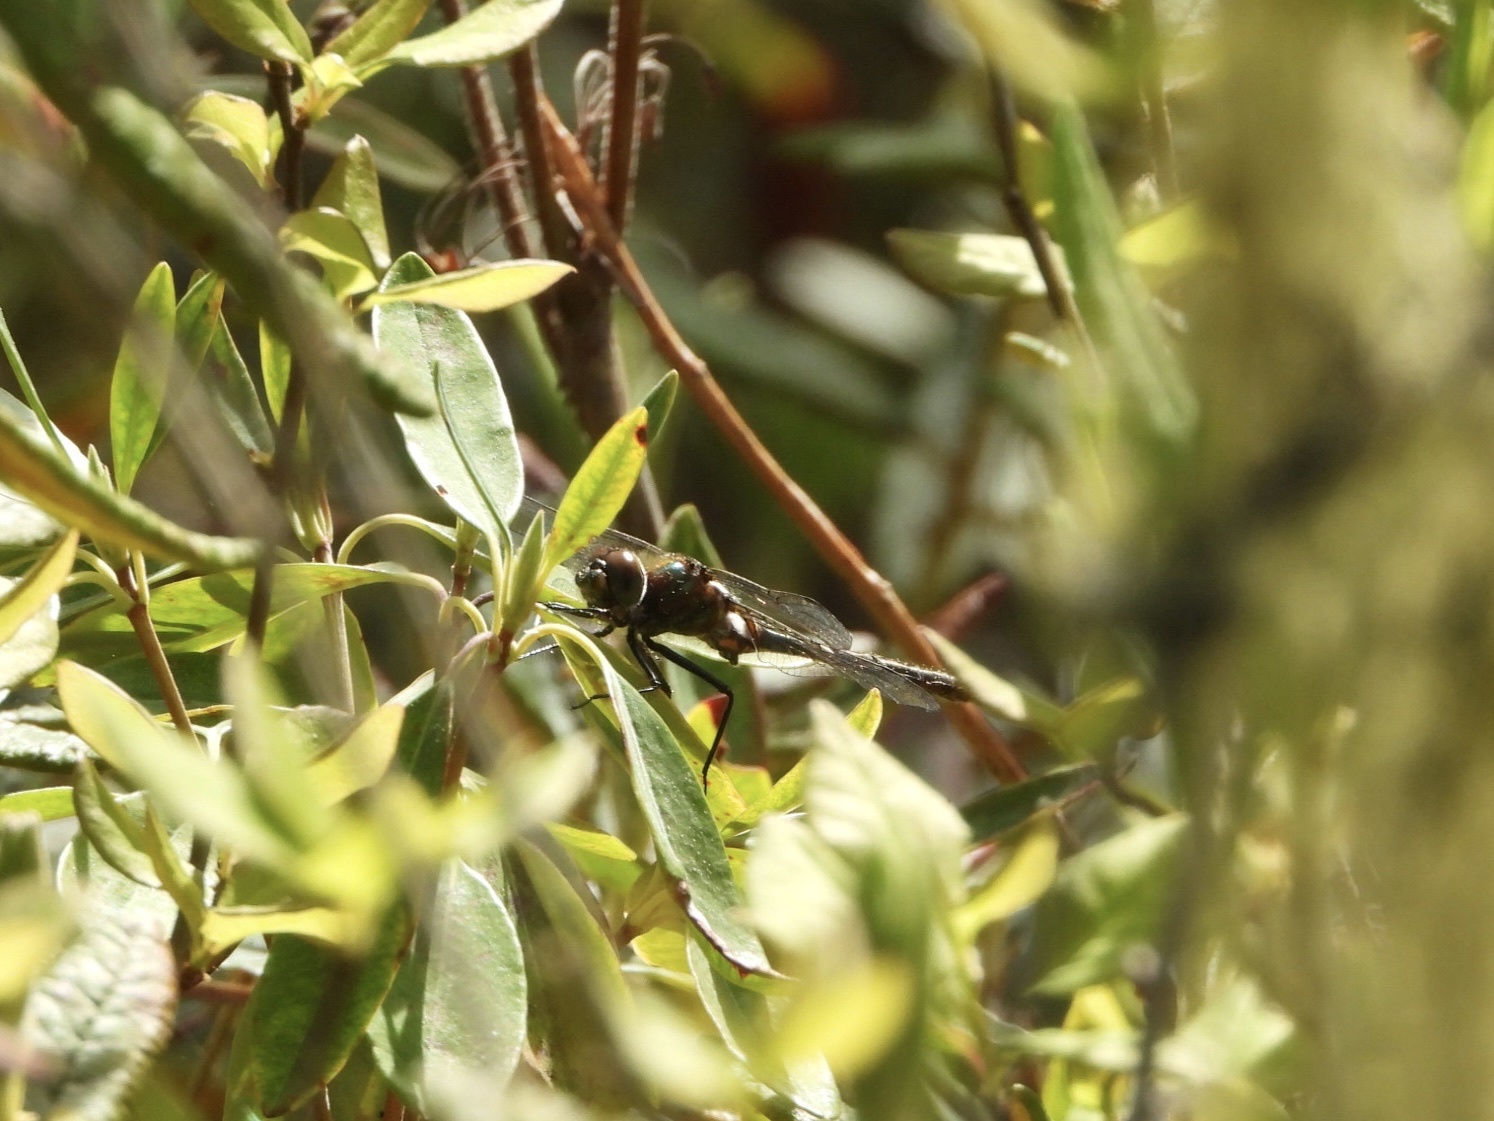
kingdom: Animalia
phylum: Arthropoda
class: Insecta
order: Odonata
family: Corduliidae
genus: Cordulia
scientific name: Cordulia shurtleffii
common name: American emerald
